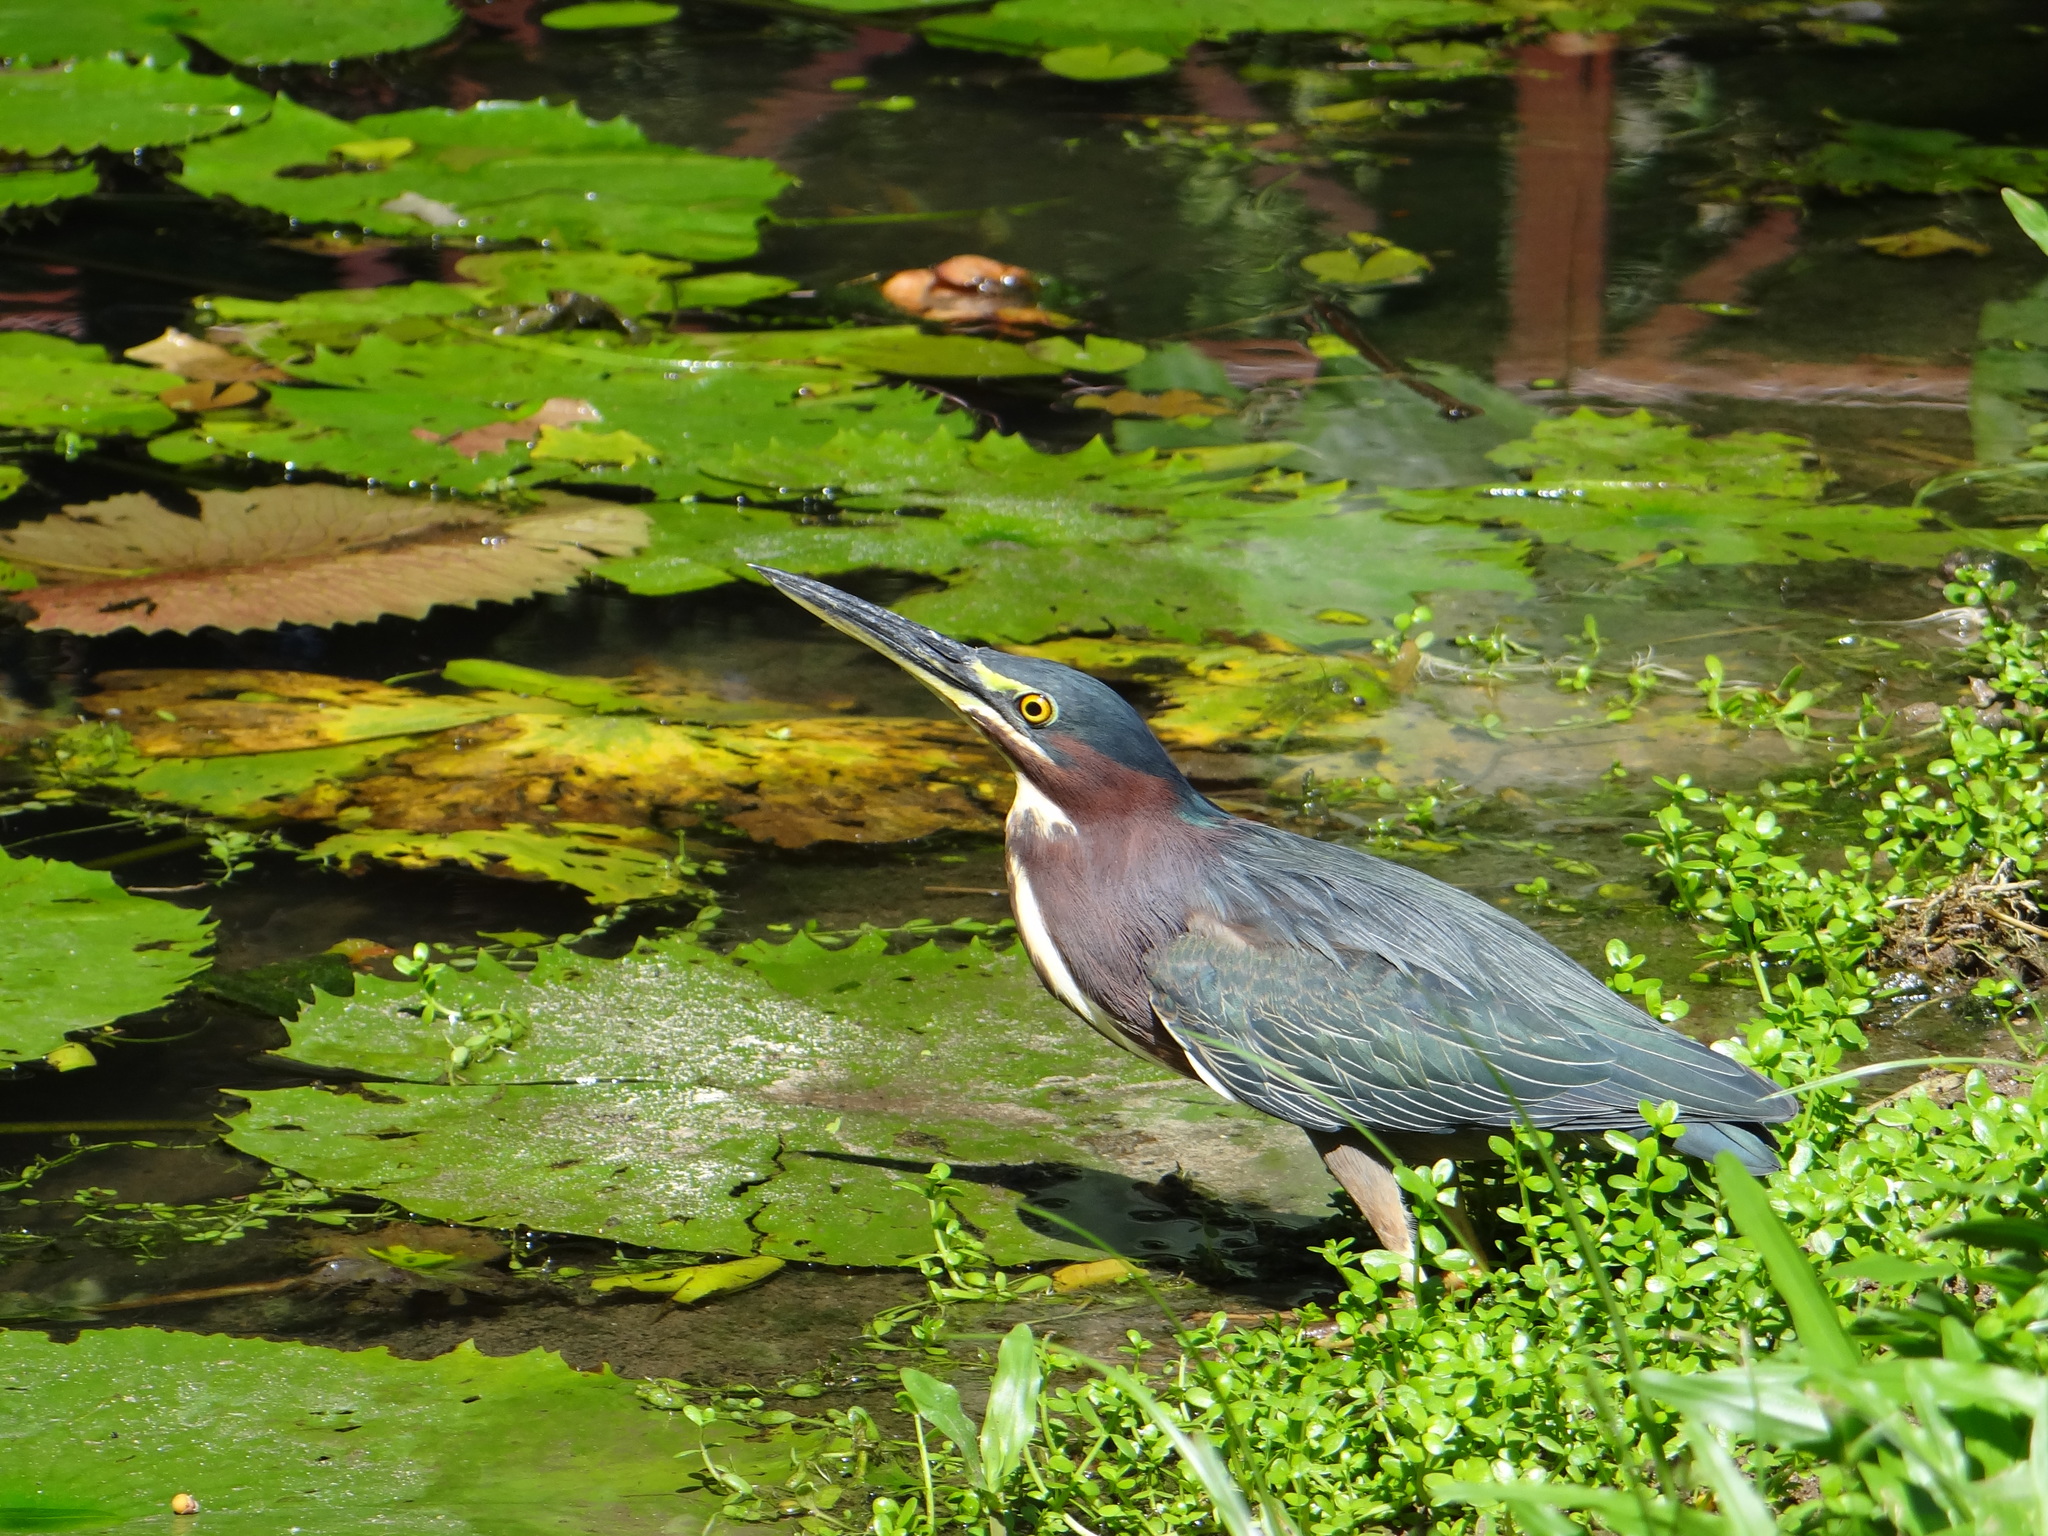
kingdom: Animalia
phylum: Chordata
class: Aves
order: Pelecaniformes
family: Ardeidae
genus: Butorides
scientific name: Butorides virescens
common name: Green heron
